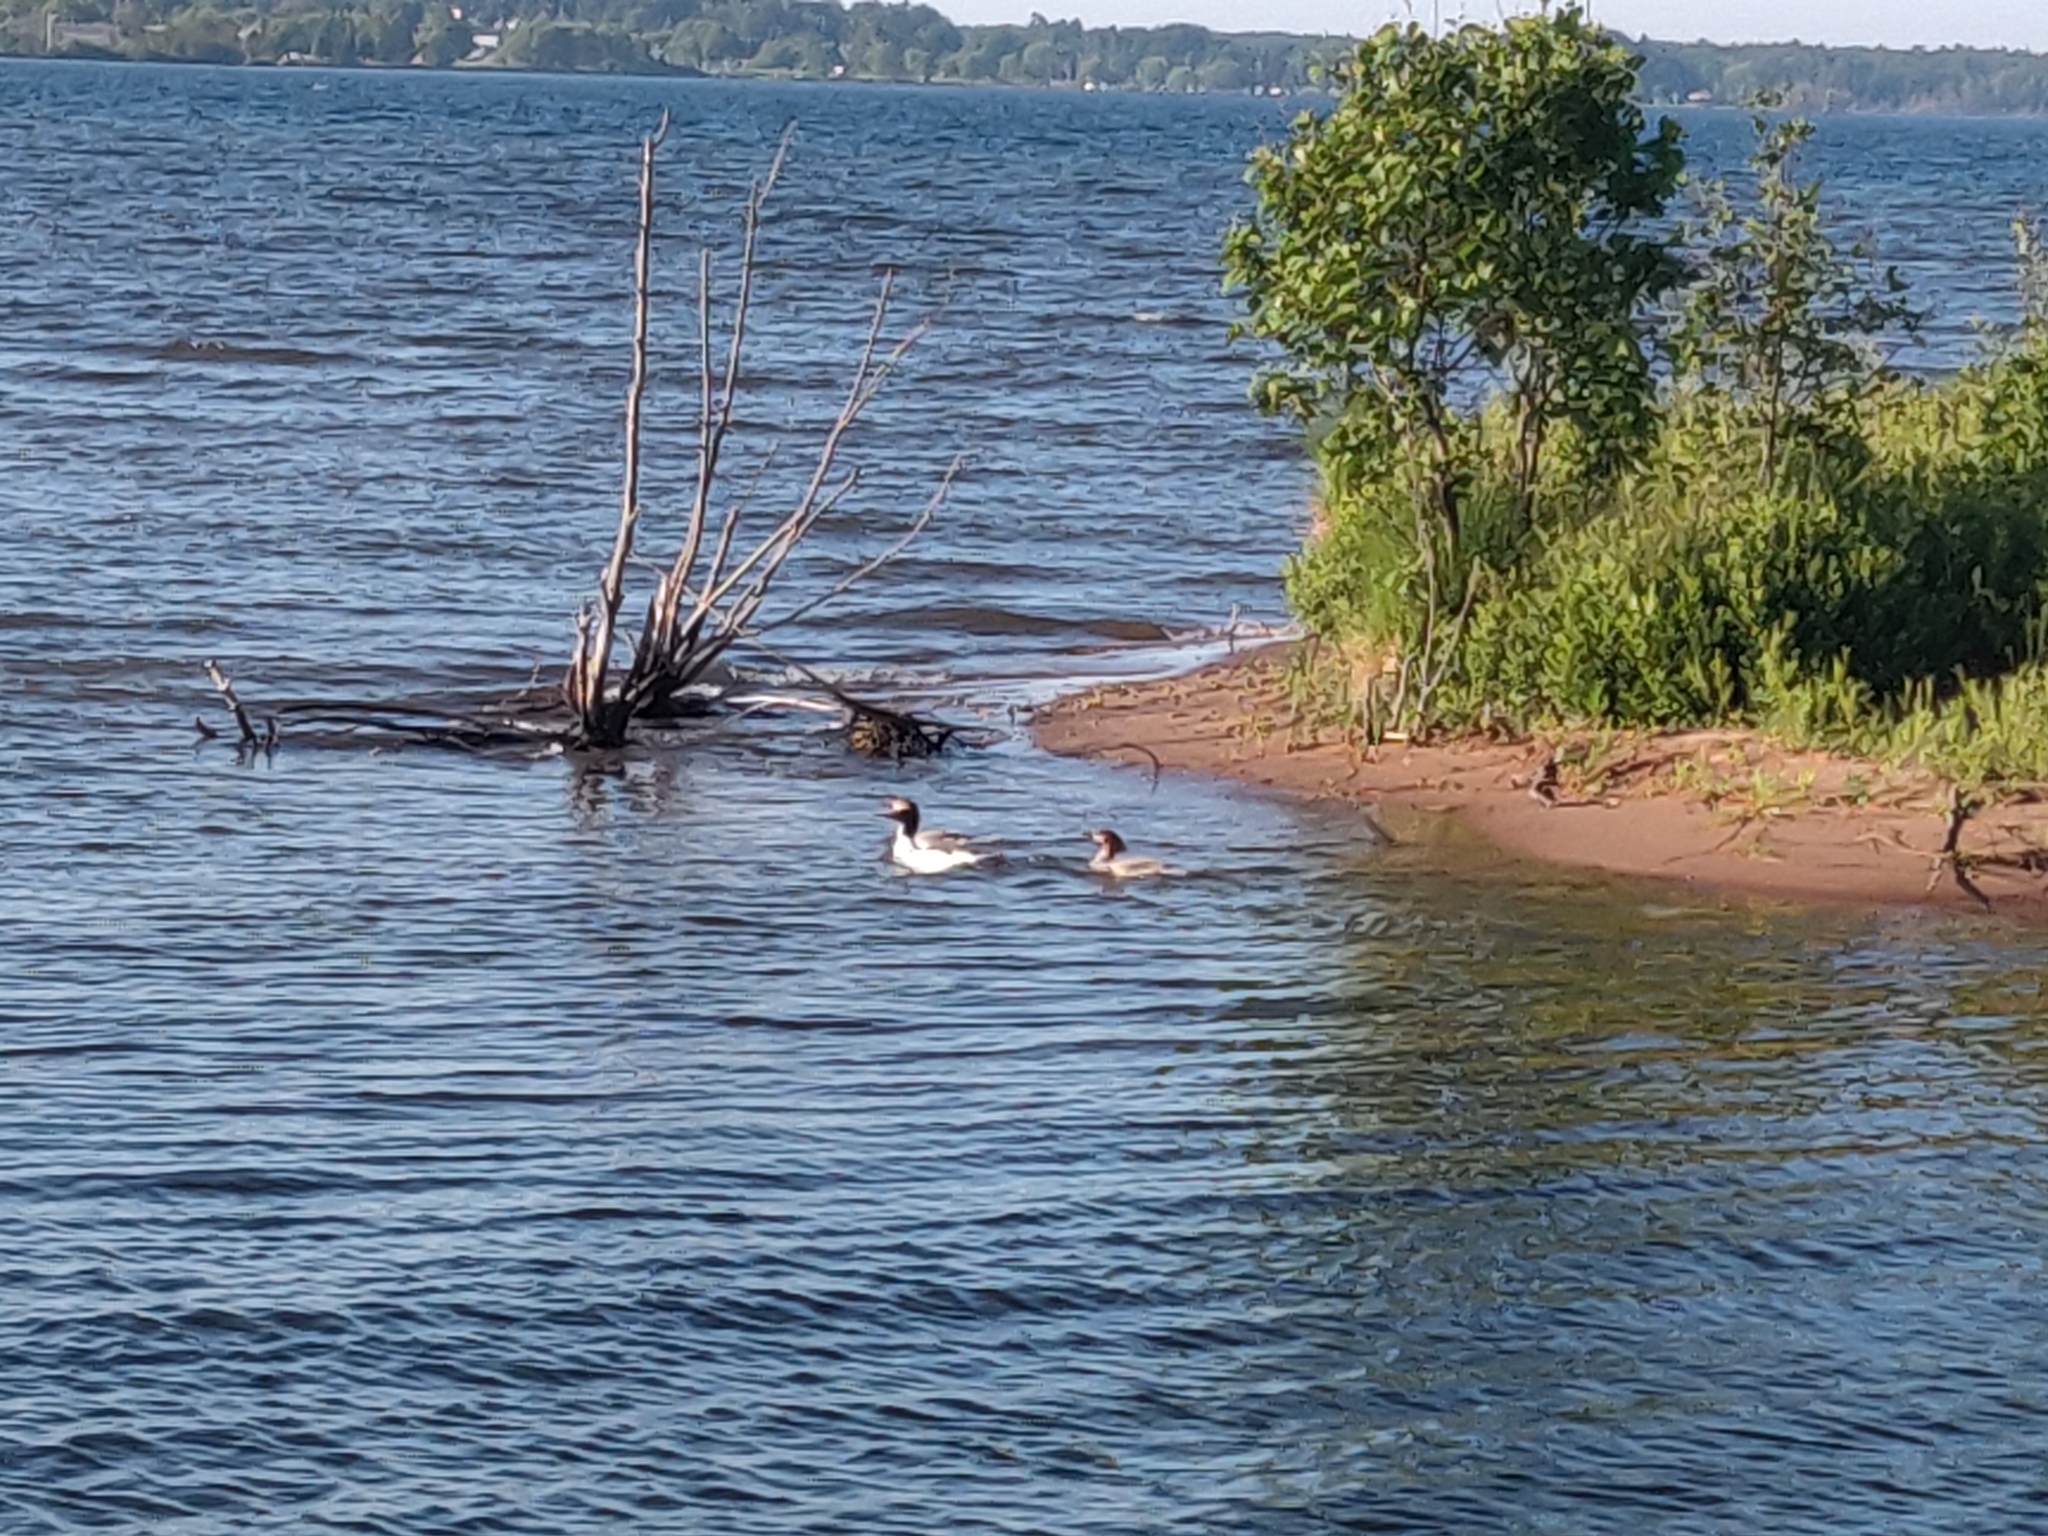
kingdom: Animalia
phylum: Chordata
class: Aves
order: Anseriformes
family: Anatidae
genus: Mergus
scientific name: Mergus merganser
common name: Common merganser
